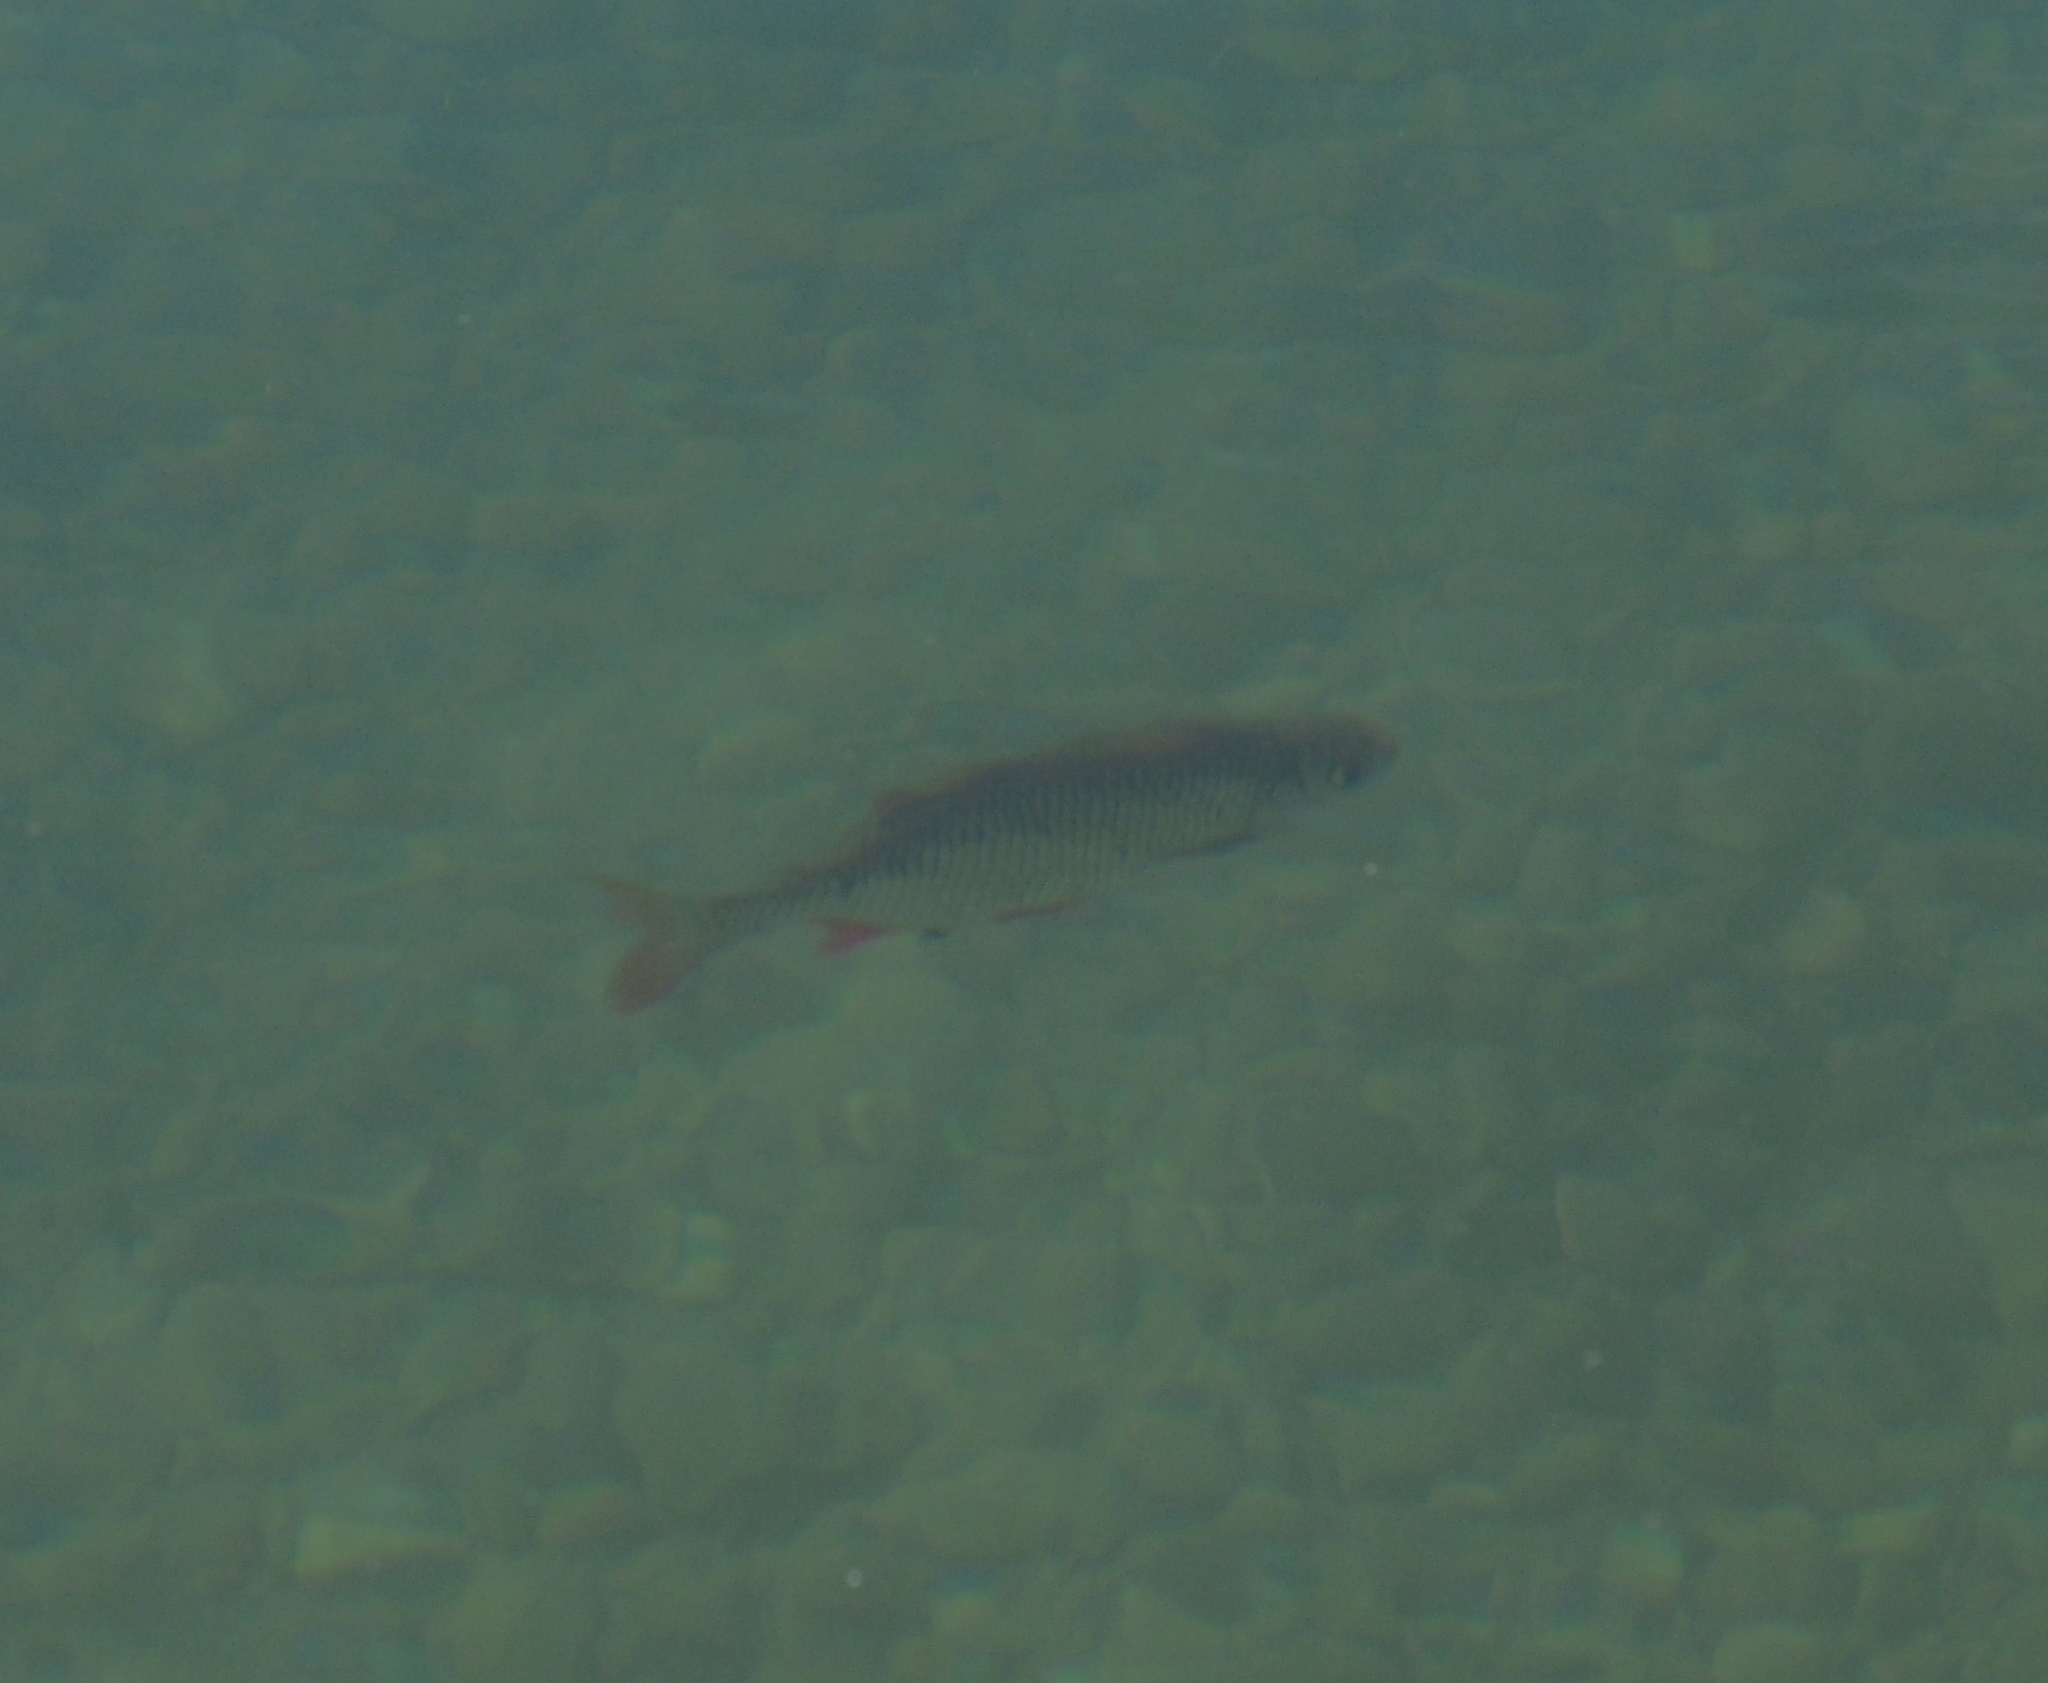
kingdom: Animalia
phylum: Chordata
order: Cypriniformes
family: Cyprinidae
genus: Scardinius
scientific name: Scardinius erythrophthalmus
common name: Rudd
